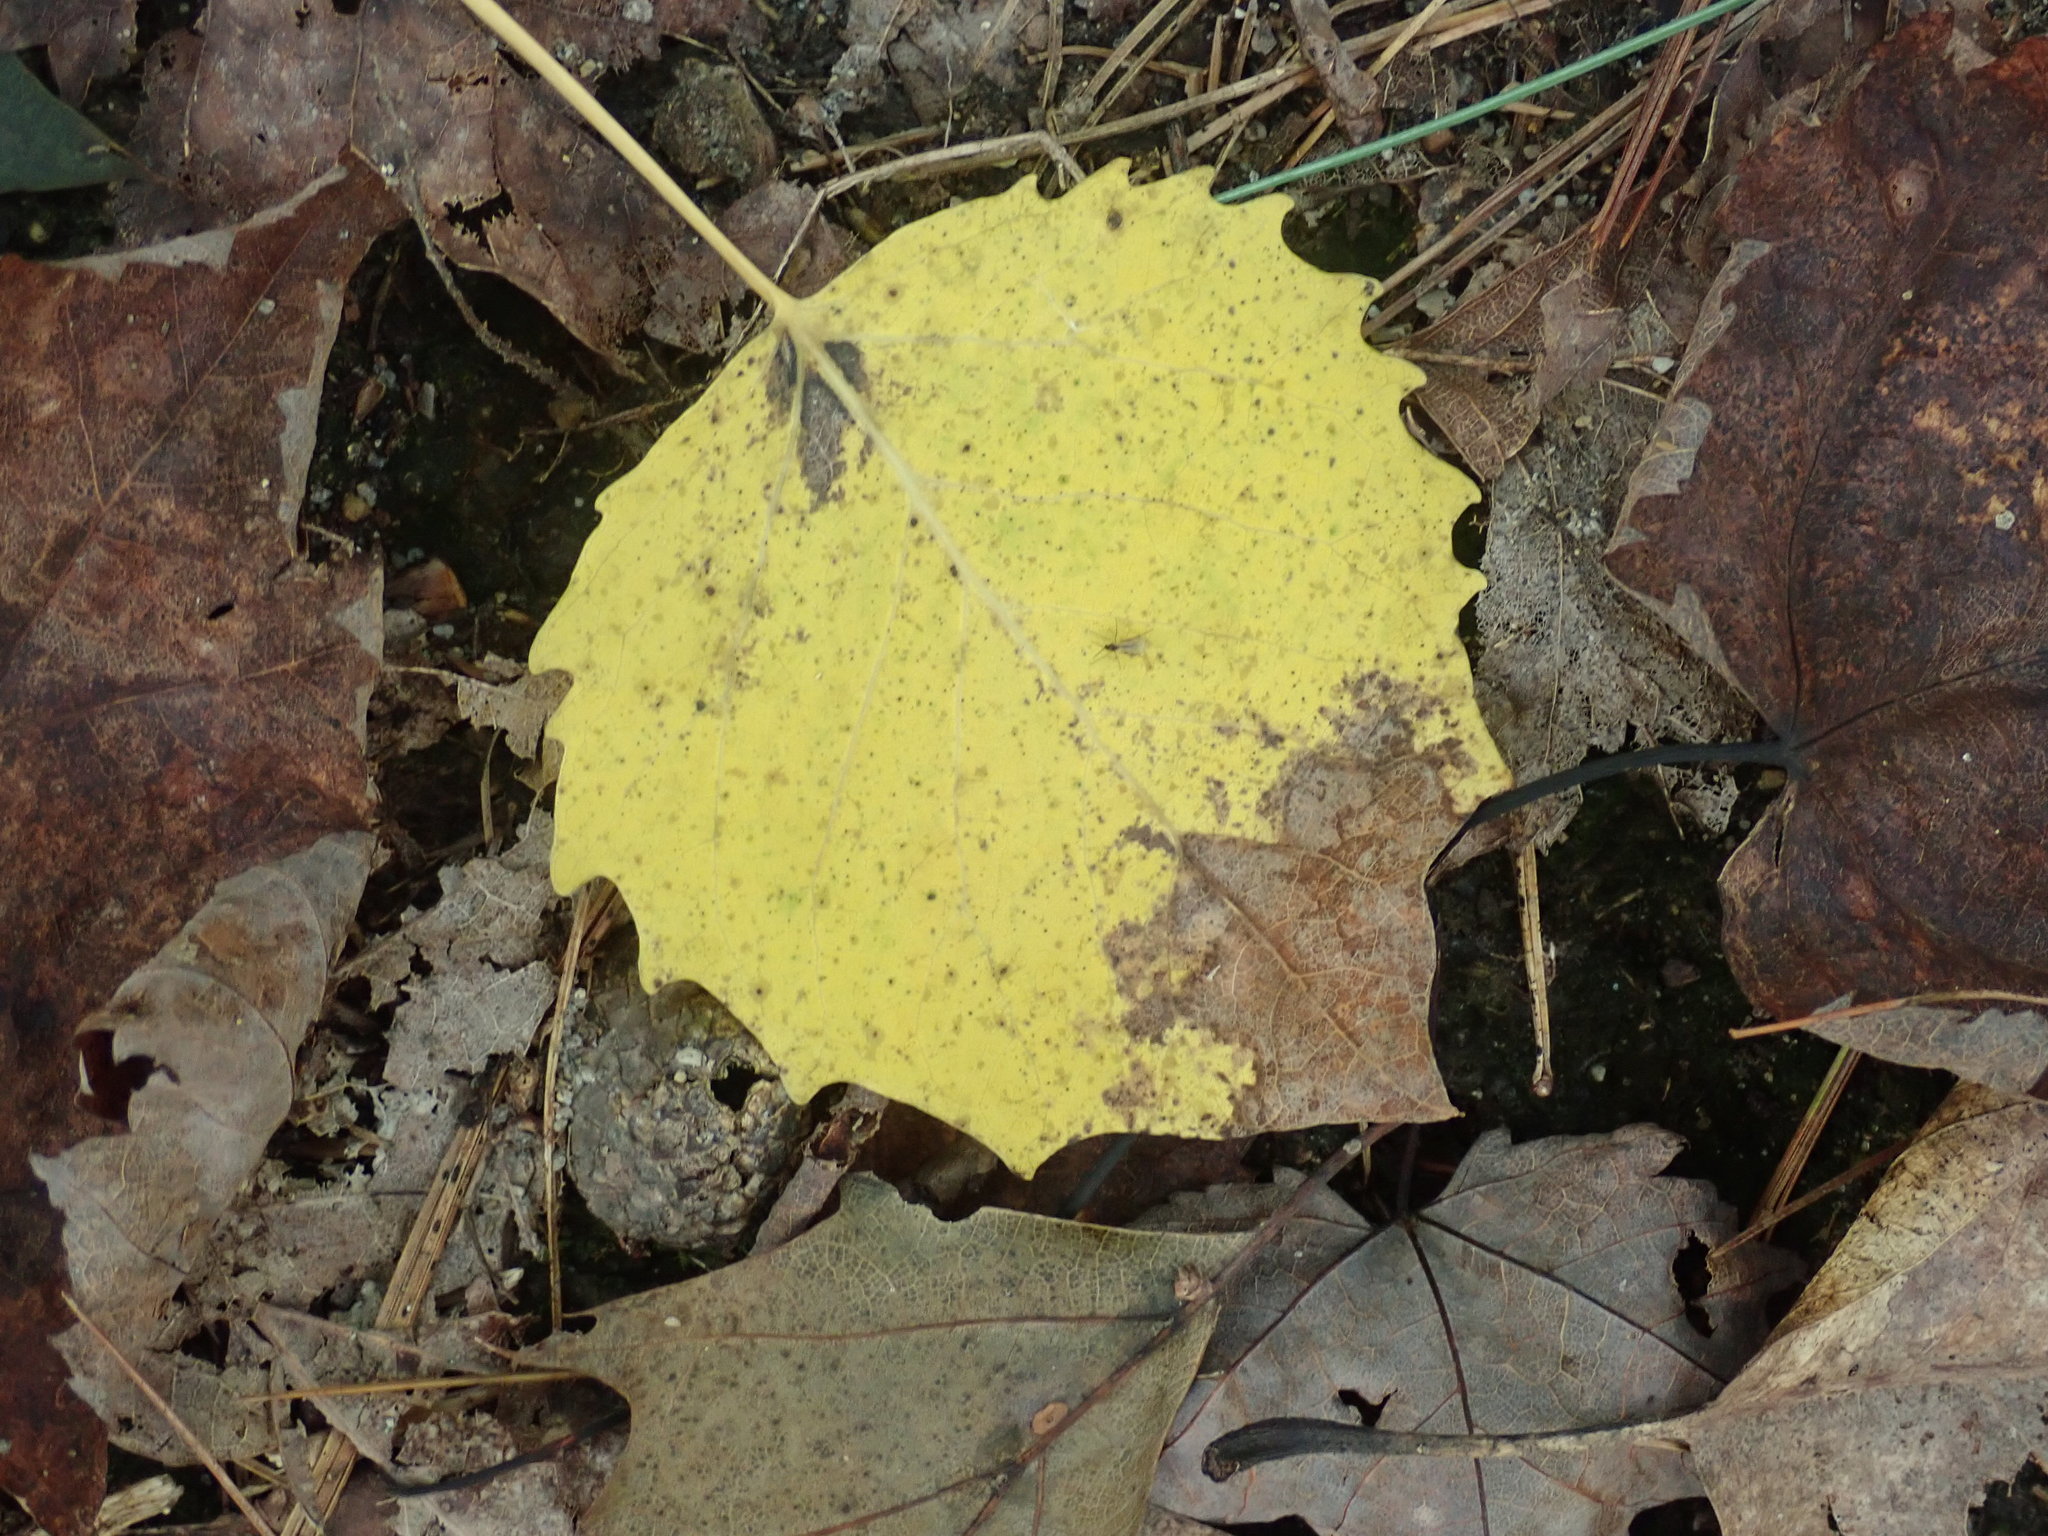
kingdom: Plantae
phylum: Tracheophyta
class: Magnoliopsida
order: Malpighiales
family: Salicaceae
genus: Populus
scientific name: Populus grandidentata
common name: Bigtooth aspen
